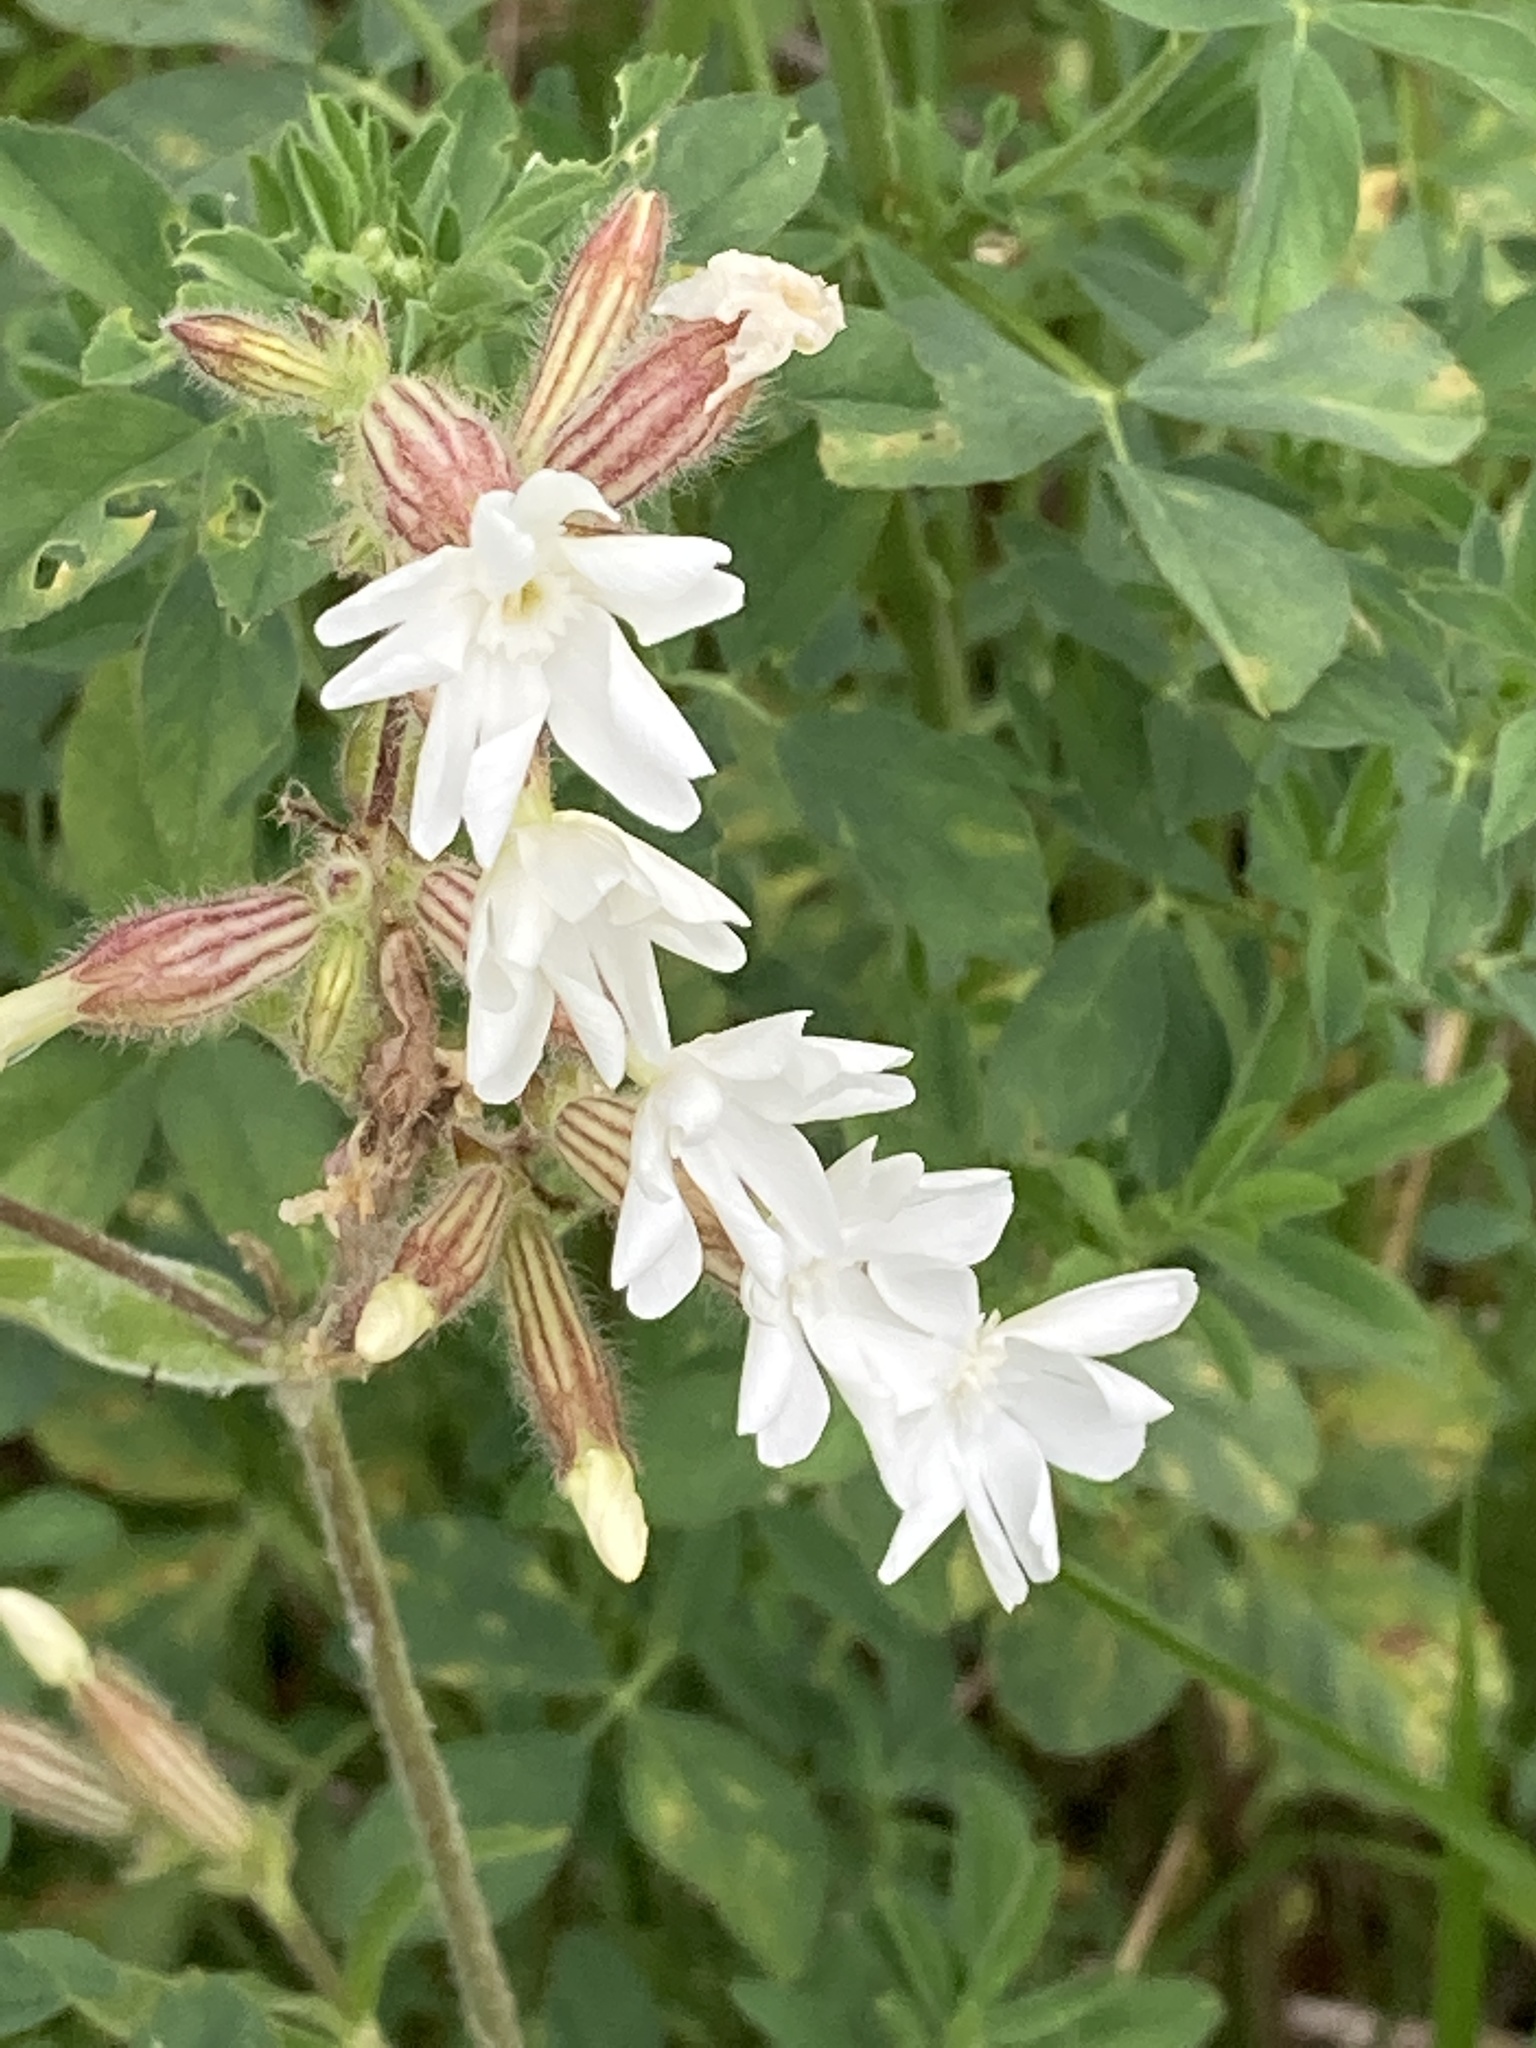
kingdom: Plantae
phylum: Tracheophyta
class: Magnoliopsida
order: Caryophyllales
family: Caryophyllaceae
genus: Silene
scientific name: Silene latifolia
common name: White campion
